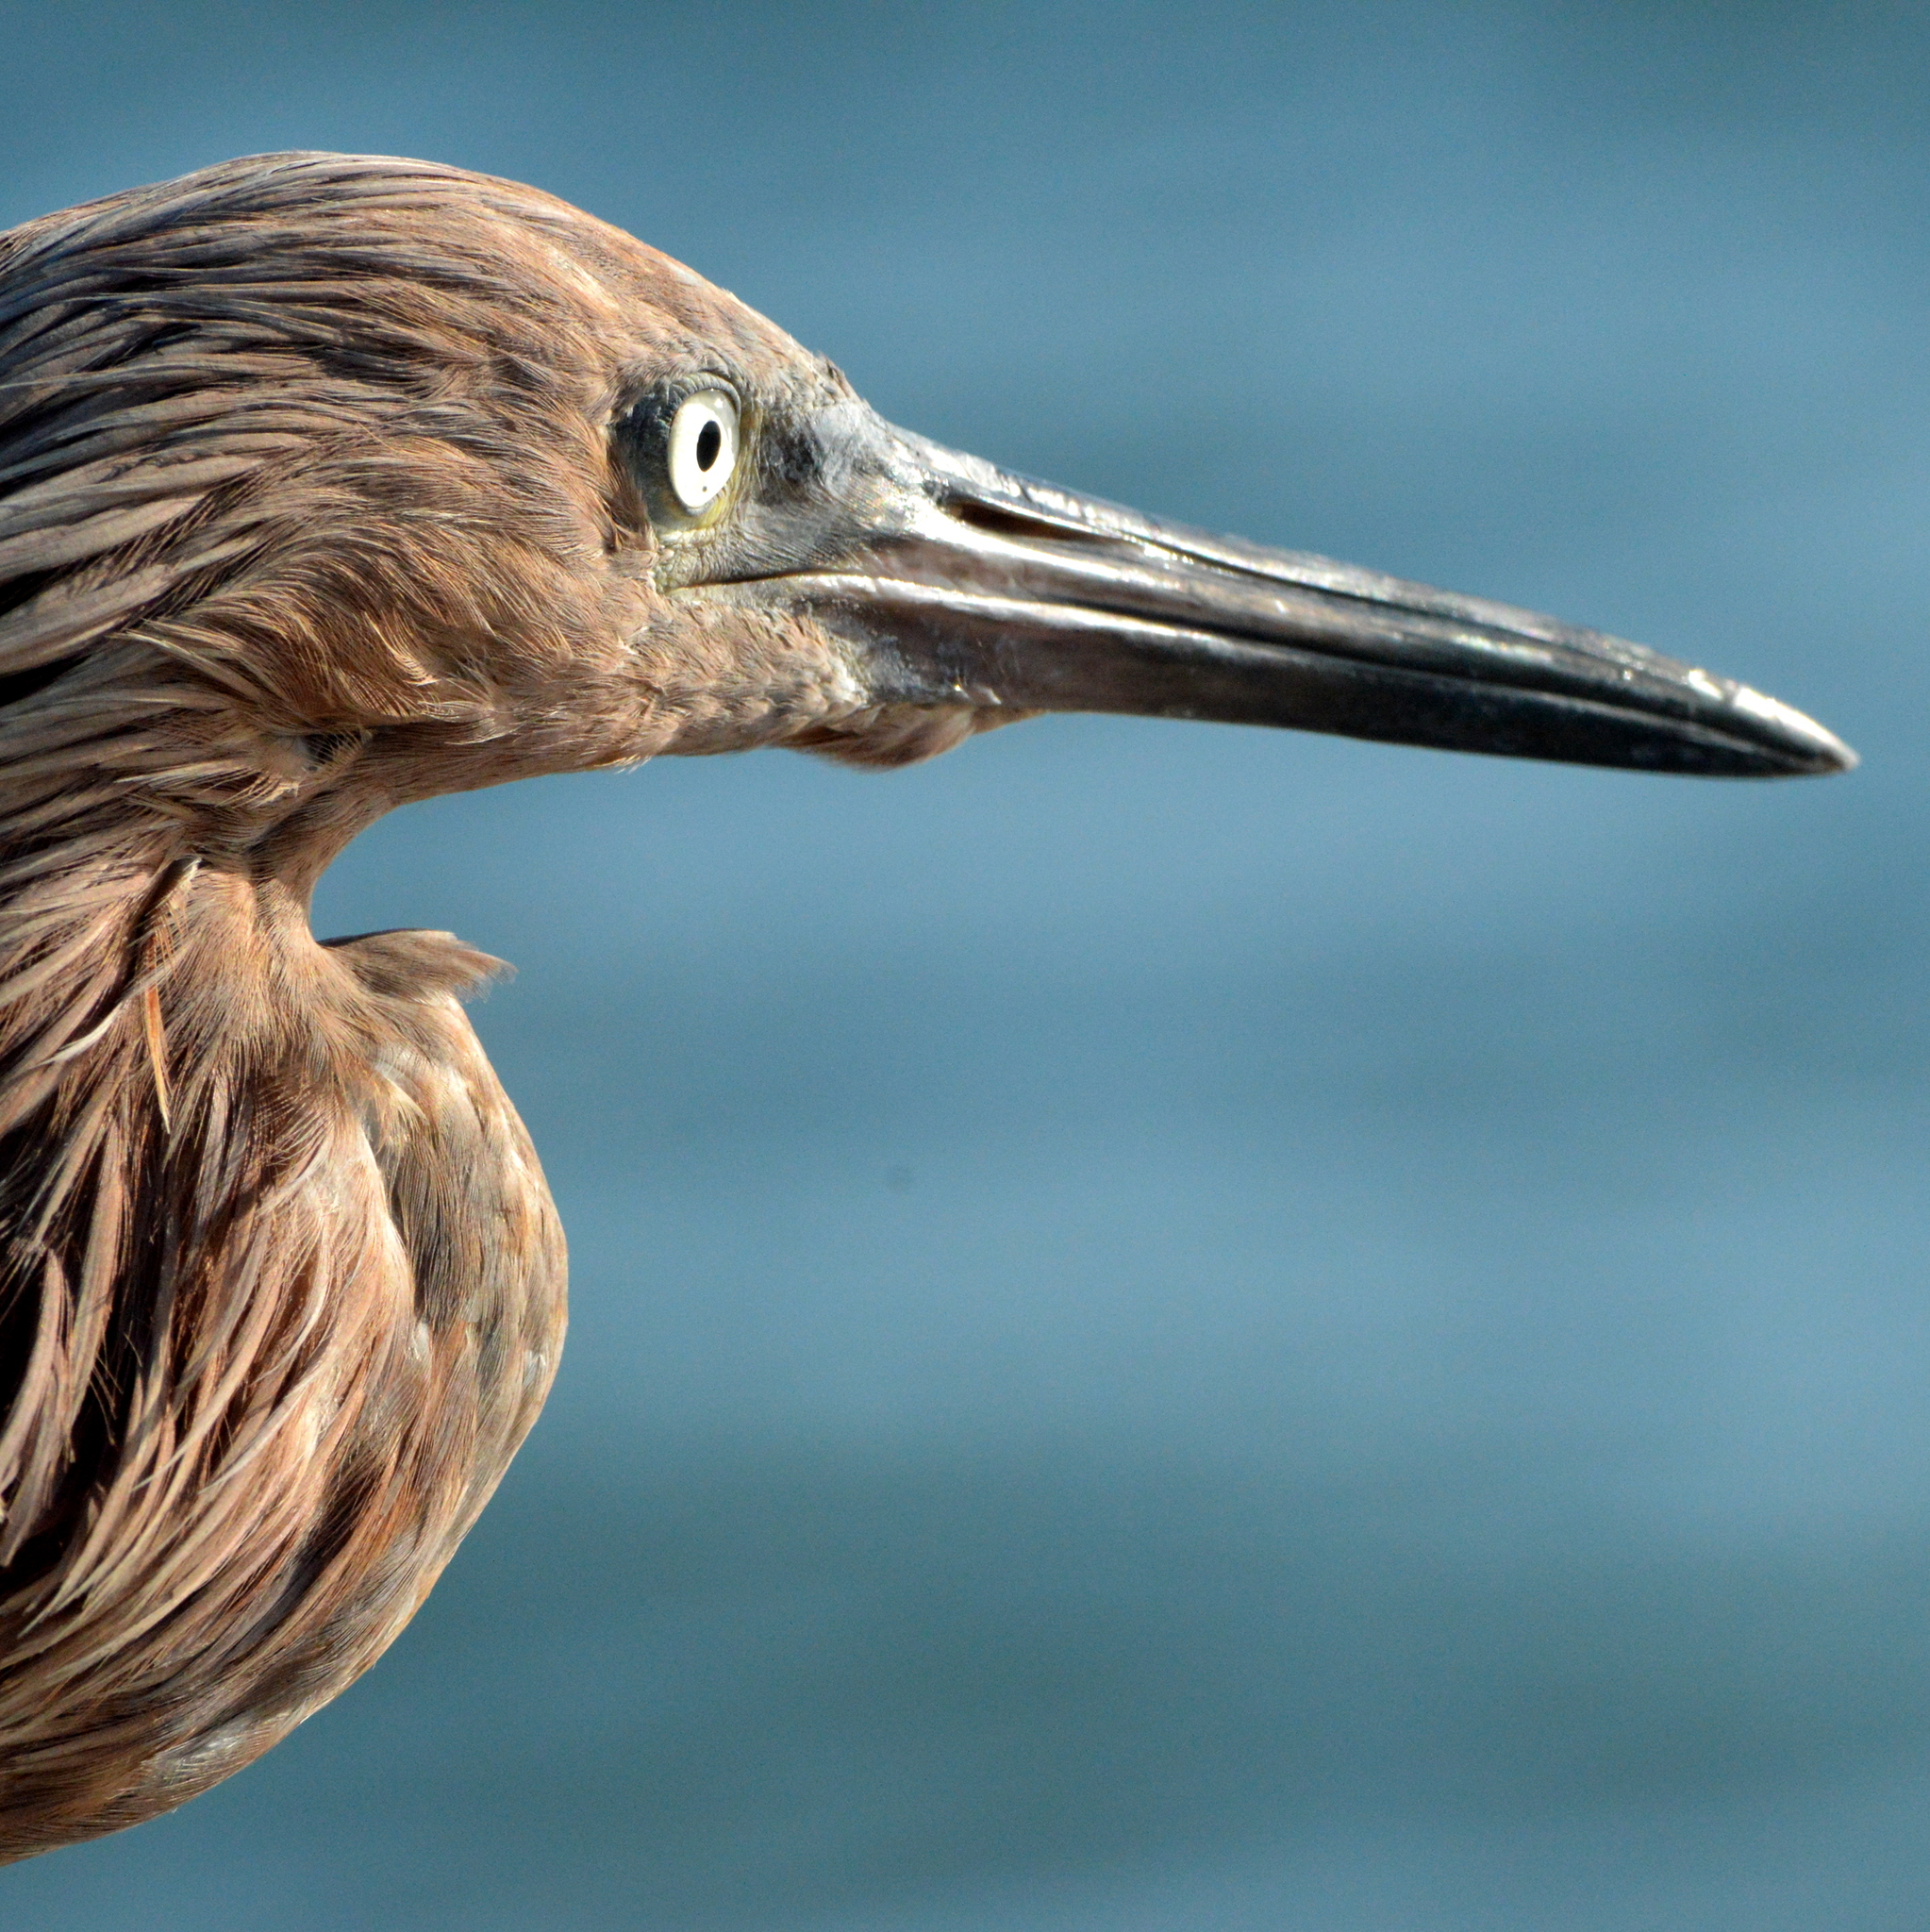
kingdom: Animalia
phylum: Chordata
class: Aves
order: Pelecaniformes
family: Ardeidae
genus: Egretta
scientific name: Egretta rufescens
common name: Reddish egret
